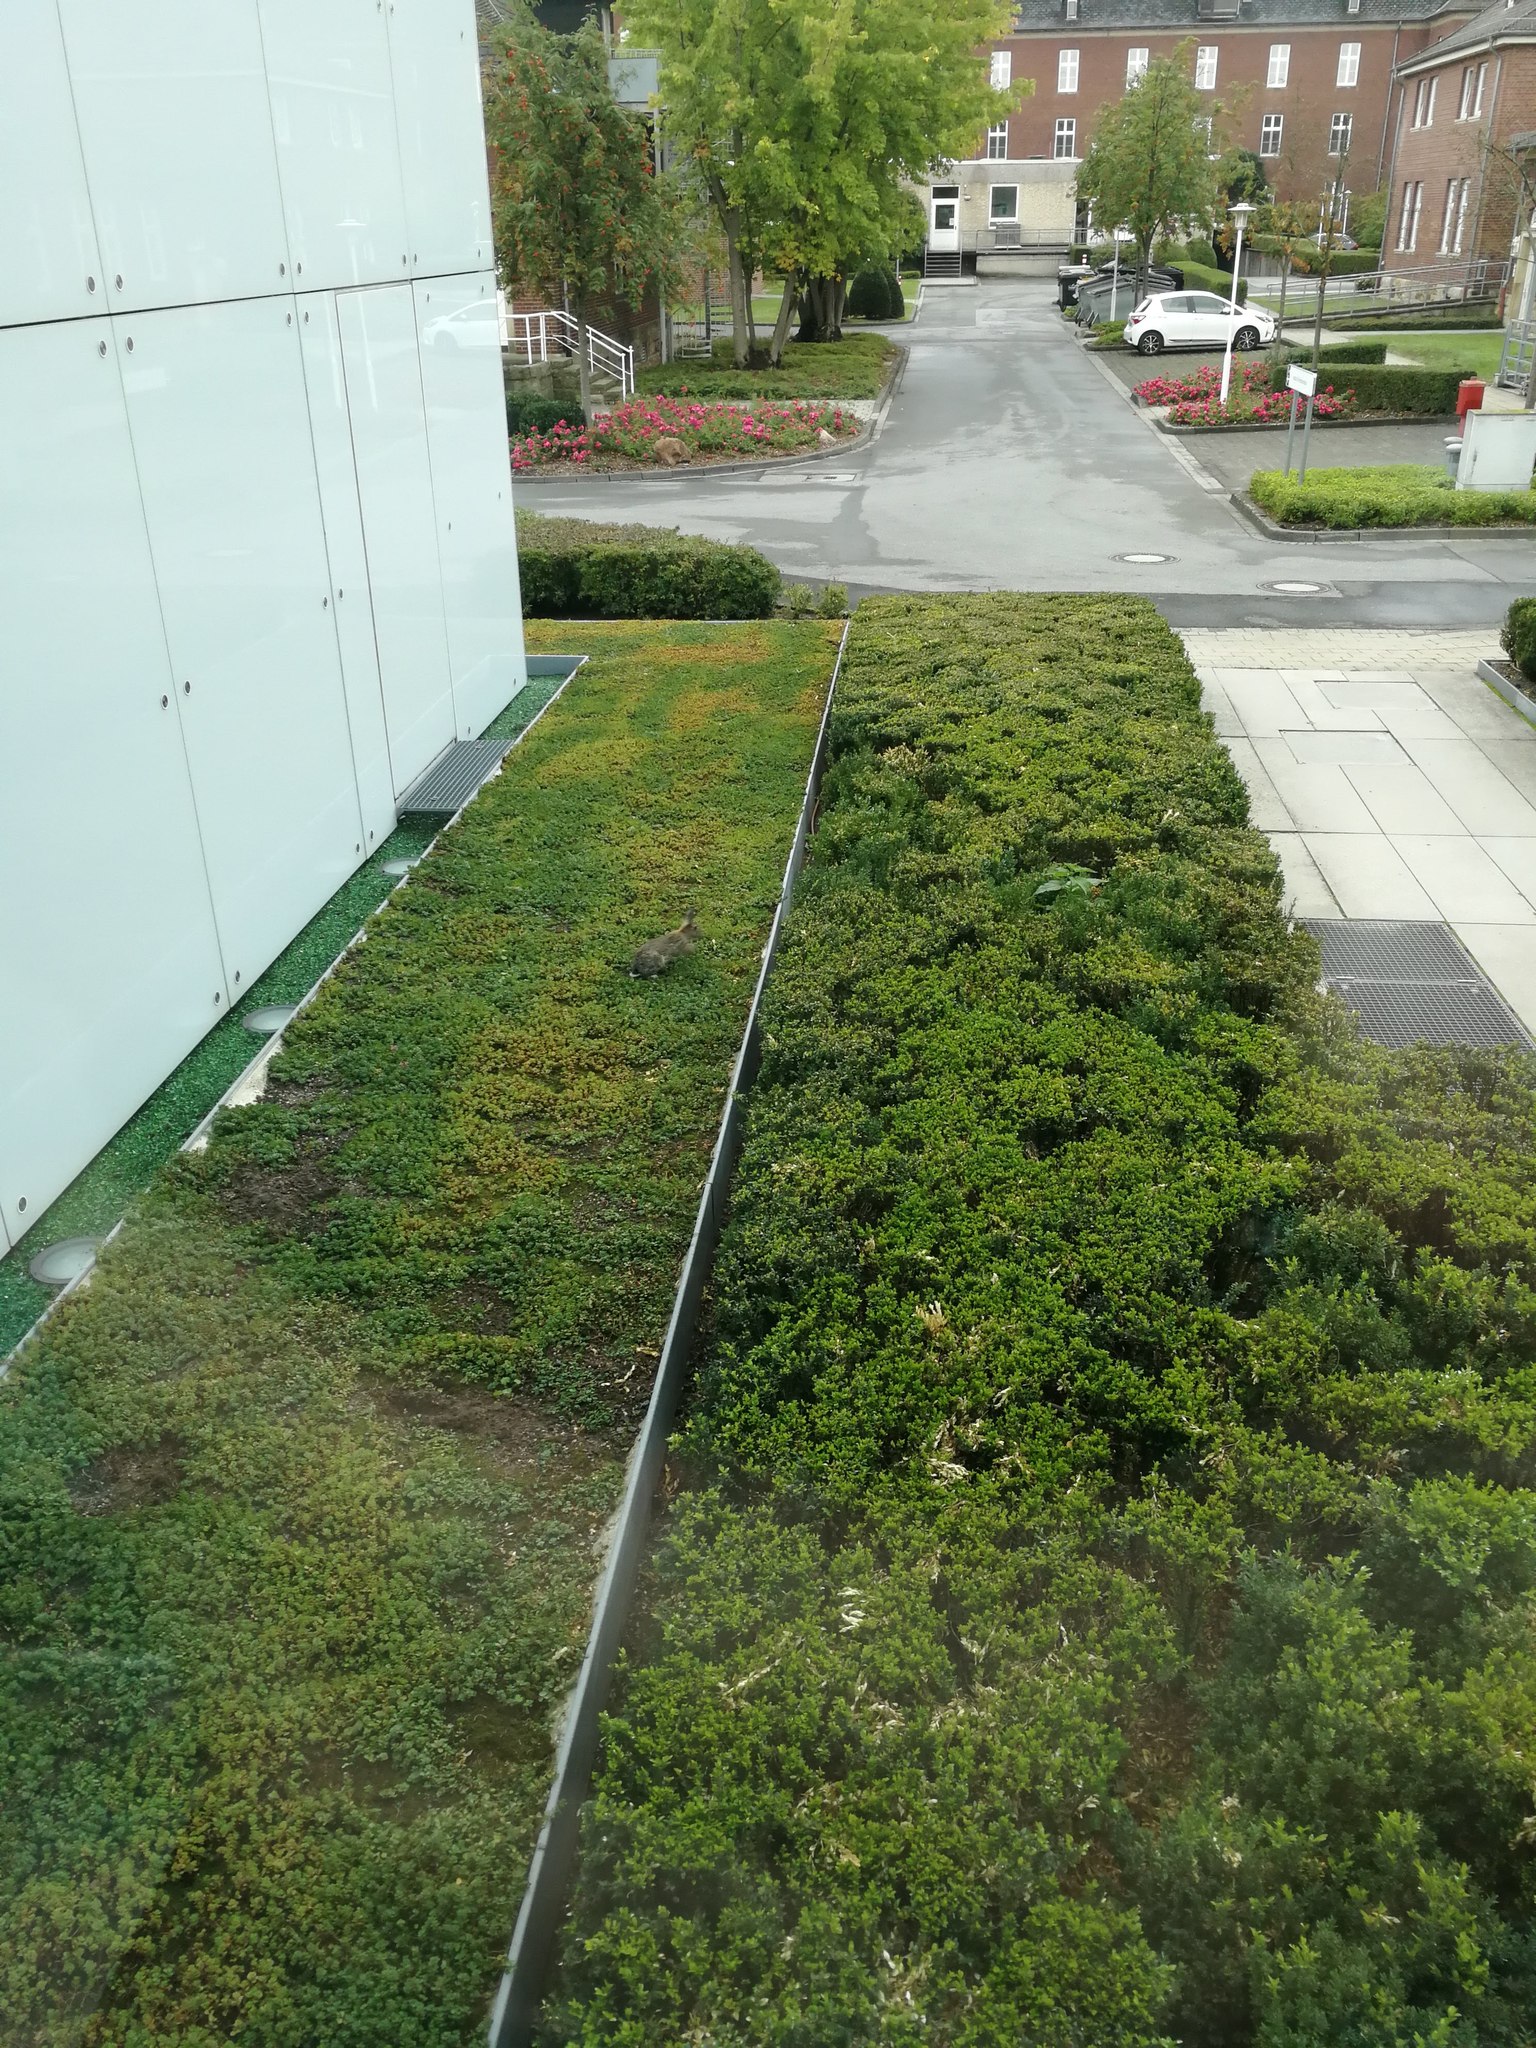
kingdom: Animalia
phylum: Chordata
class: Mammalia
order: Lagomorpha
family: Leporidae
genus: Oryctolagus
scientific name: Oryctolagus cuniculus
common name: European rabbit
